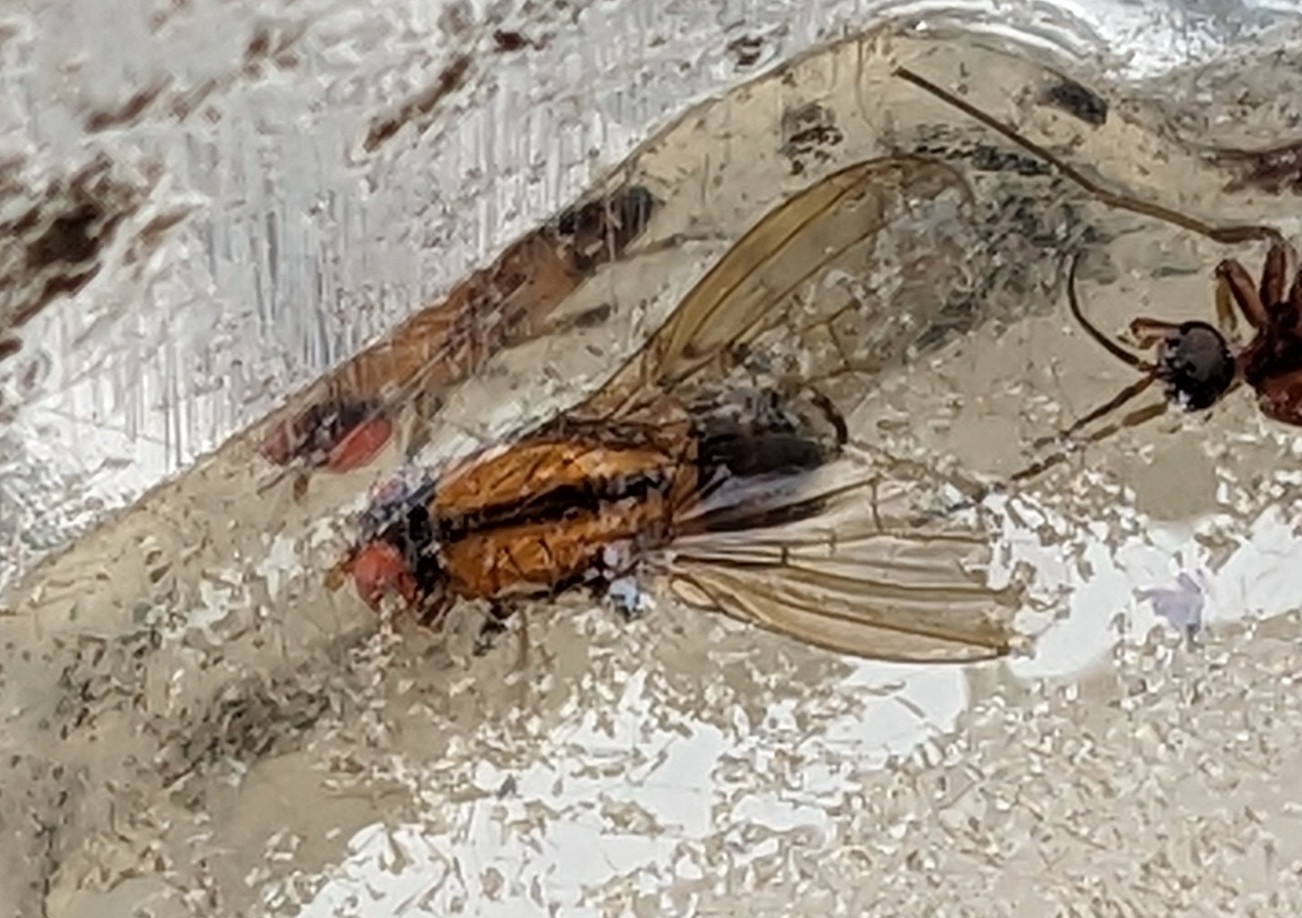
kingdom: Animalia
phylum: Arthropoda
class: Insecta
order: Diptera
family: Lauxaniidae
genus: Sapromyza
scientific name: Sapromyza neozelandica
